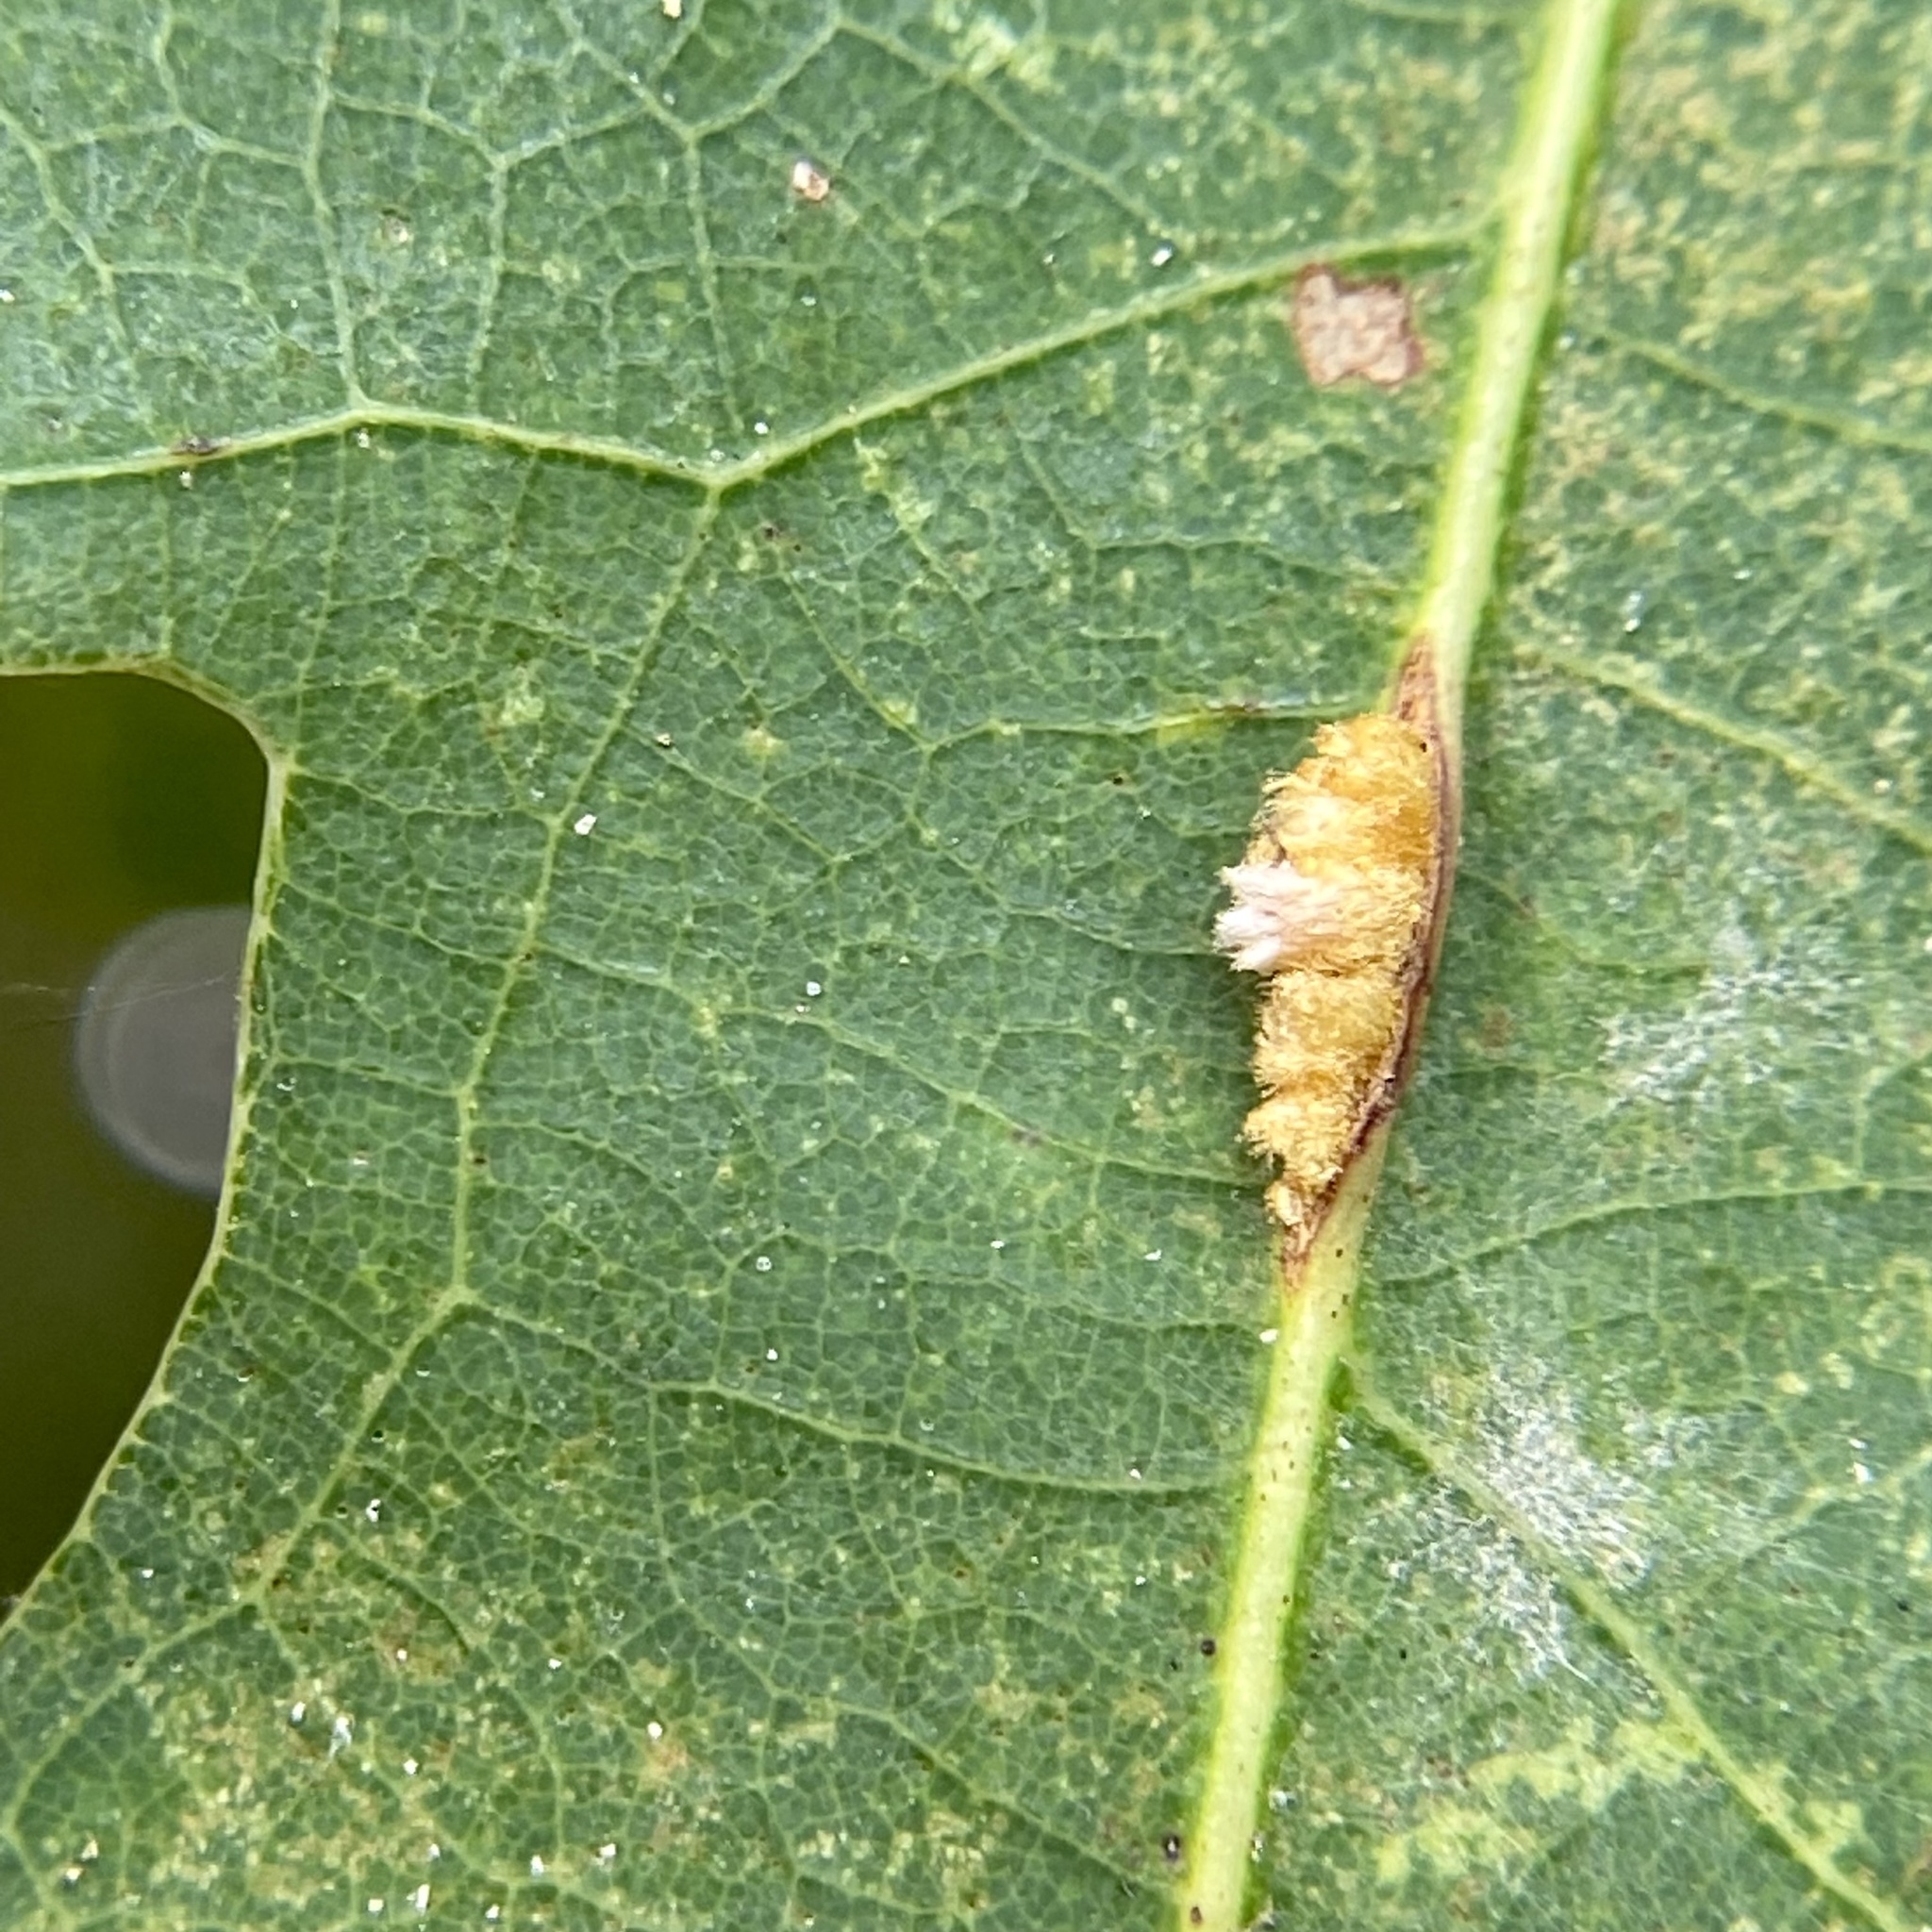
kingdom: Animalia
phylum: Arthropoda
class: Insecta
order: Hymenoptera
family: Cynipidae
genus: Andricus
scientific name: Andricus quercusflocci
